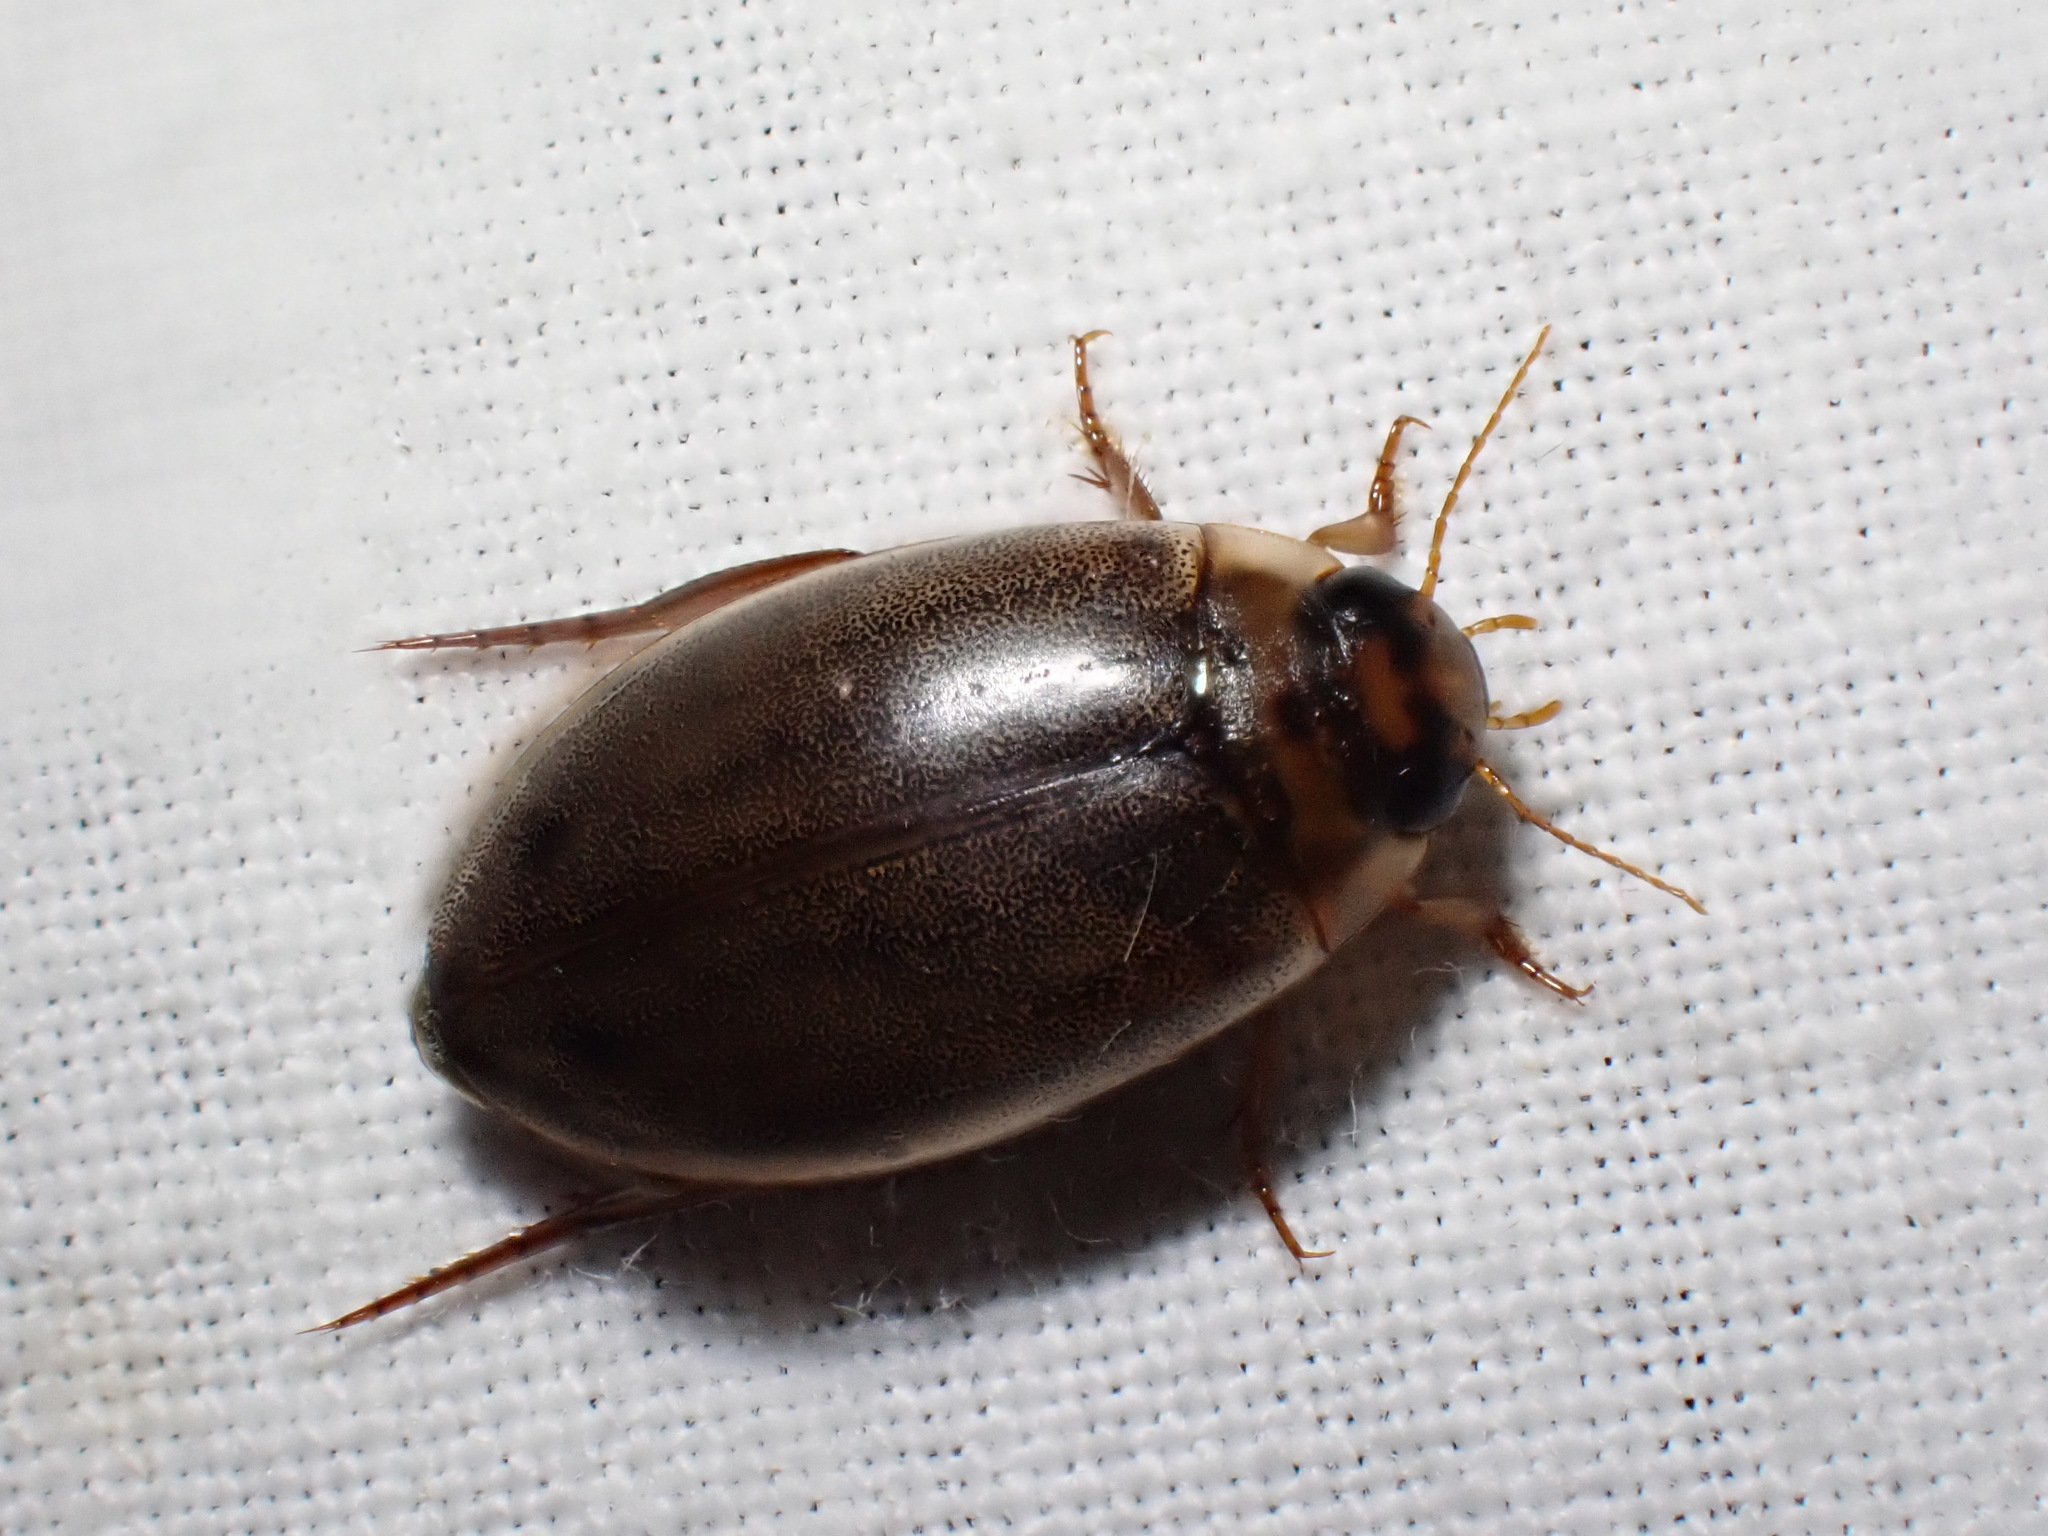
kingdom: Animalia
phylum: Arthropoda
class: Insecta
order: Coleoptera
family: Dytiscidae
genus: Rhantus
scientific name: Rhantus suturalis
